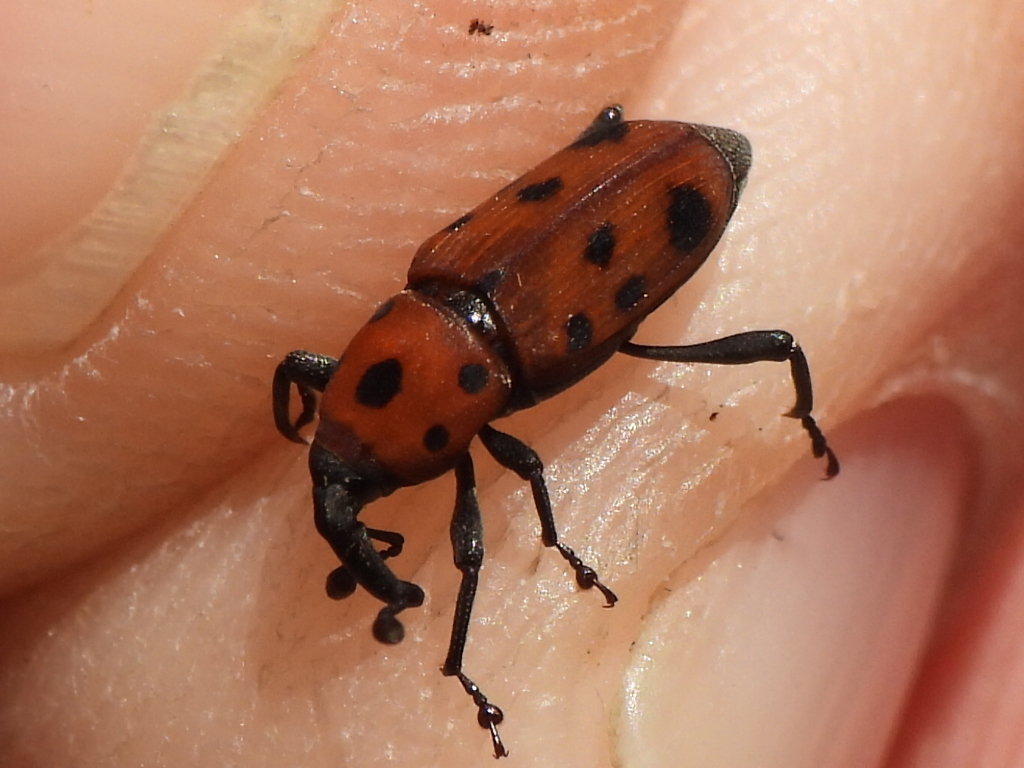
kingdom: Animalia
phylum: Arthropoda
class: Insecta
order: Coleoptera
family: Dryophthoridae
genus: Rhodobaenus
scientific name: Rhodobaenus tredecimpunctatus
